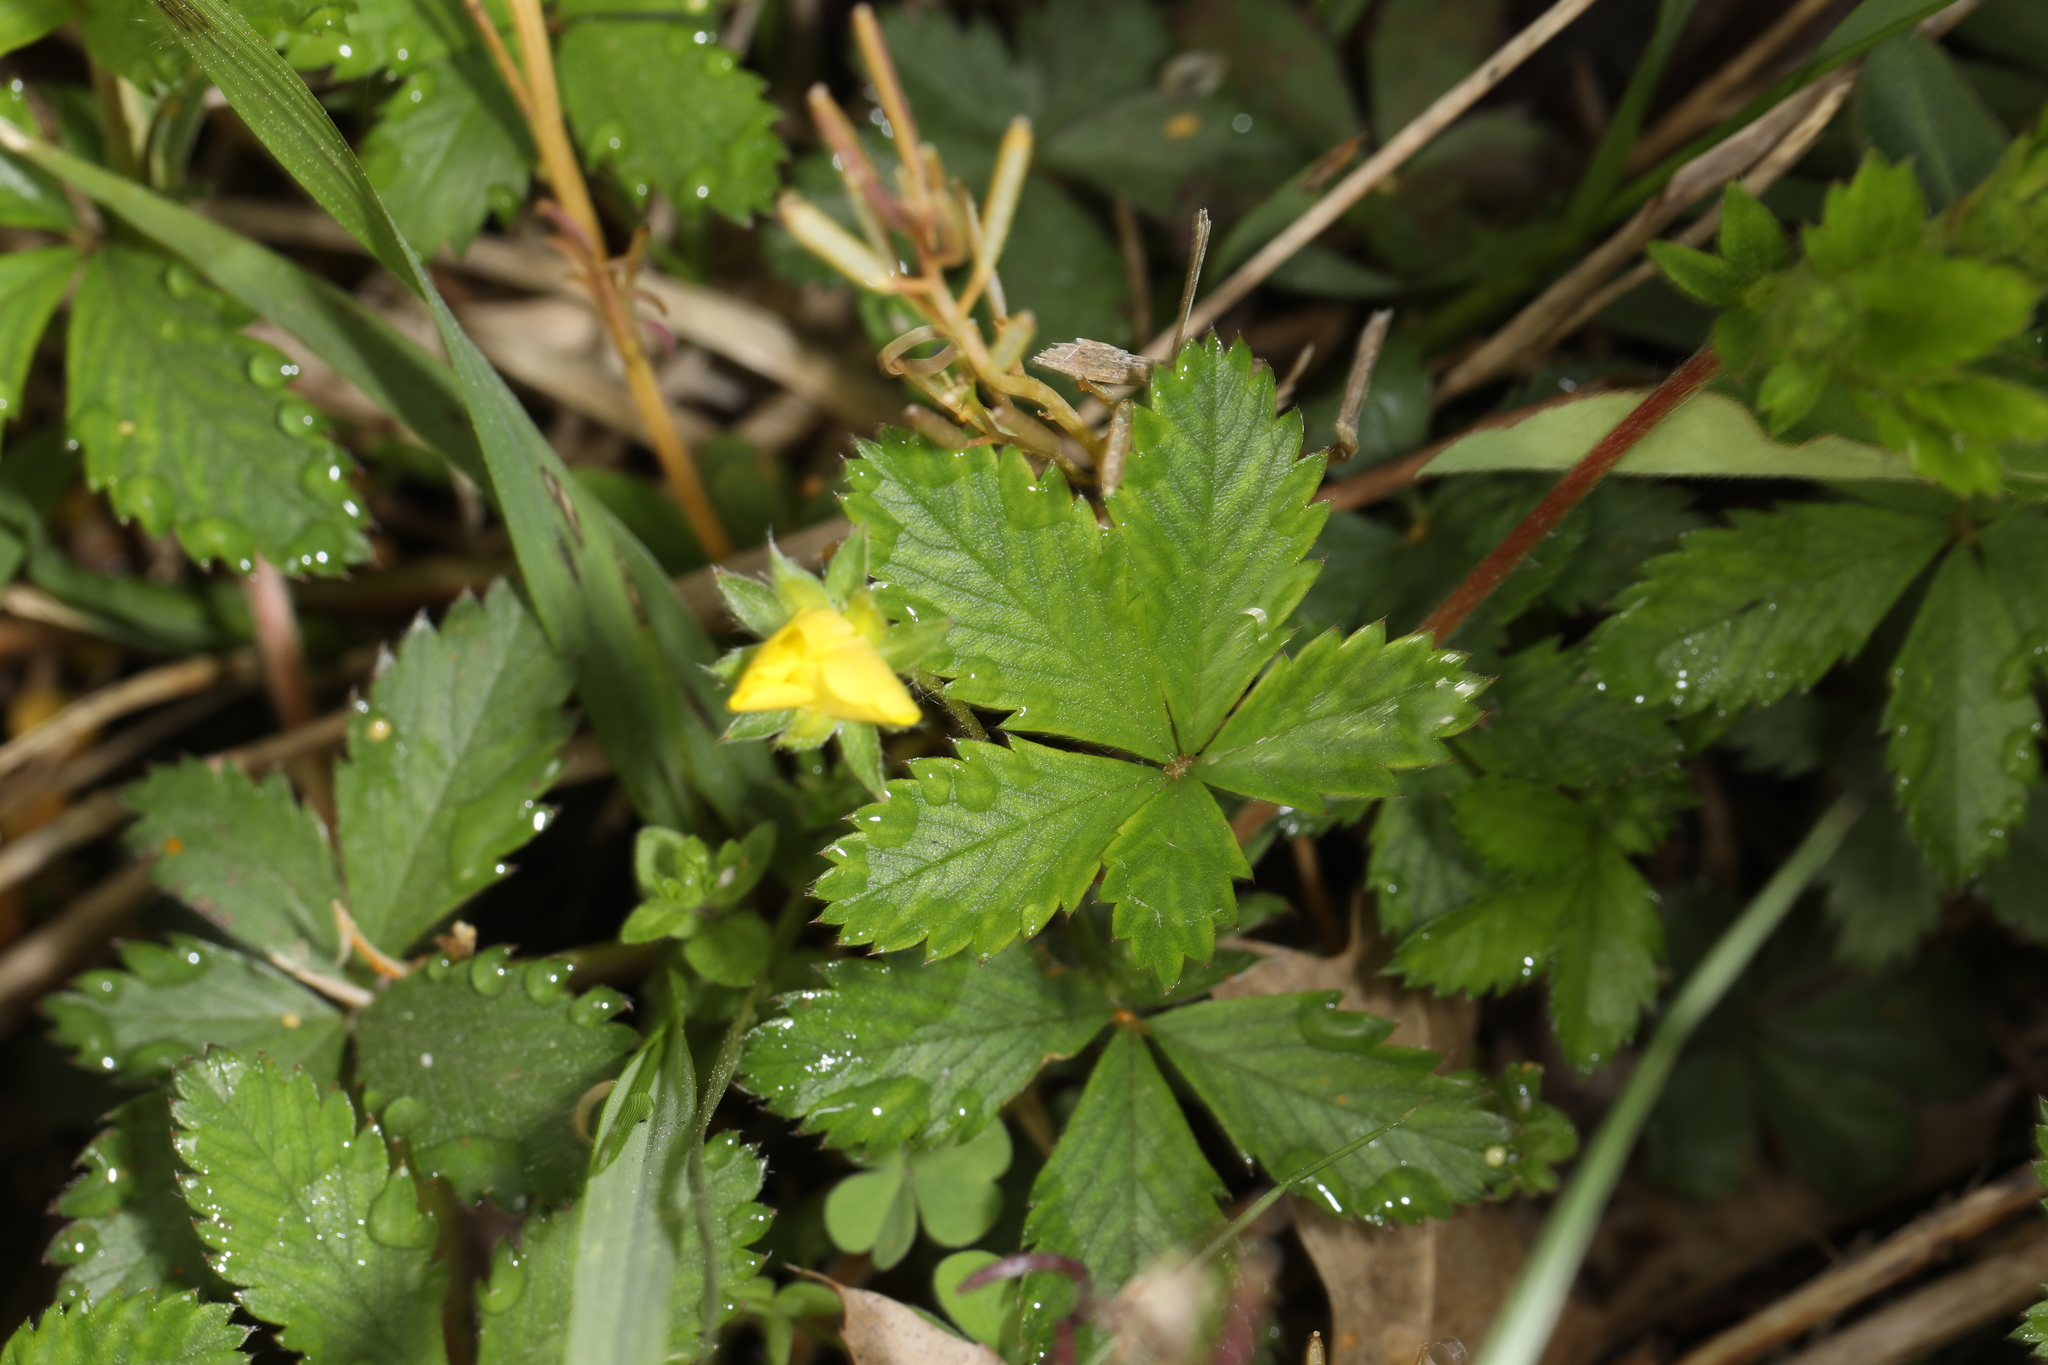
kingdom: Plantae
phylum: Tracheophyta
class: Magnoliopsida
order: Rosales
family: Rosaceae
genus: Potentilla
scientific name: Potentilla simplex
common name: Old field cinquefoil
